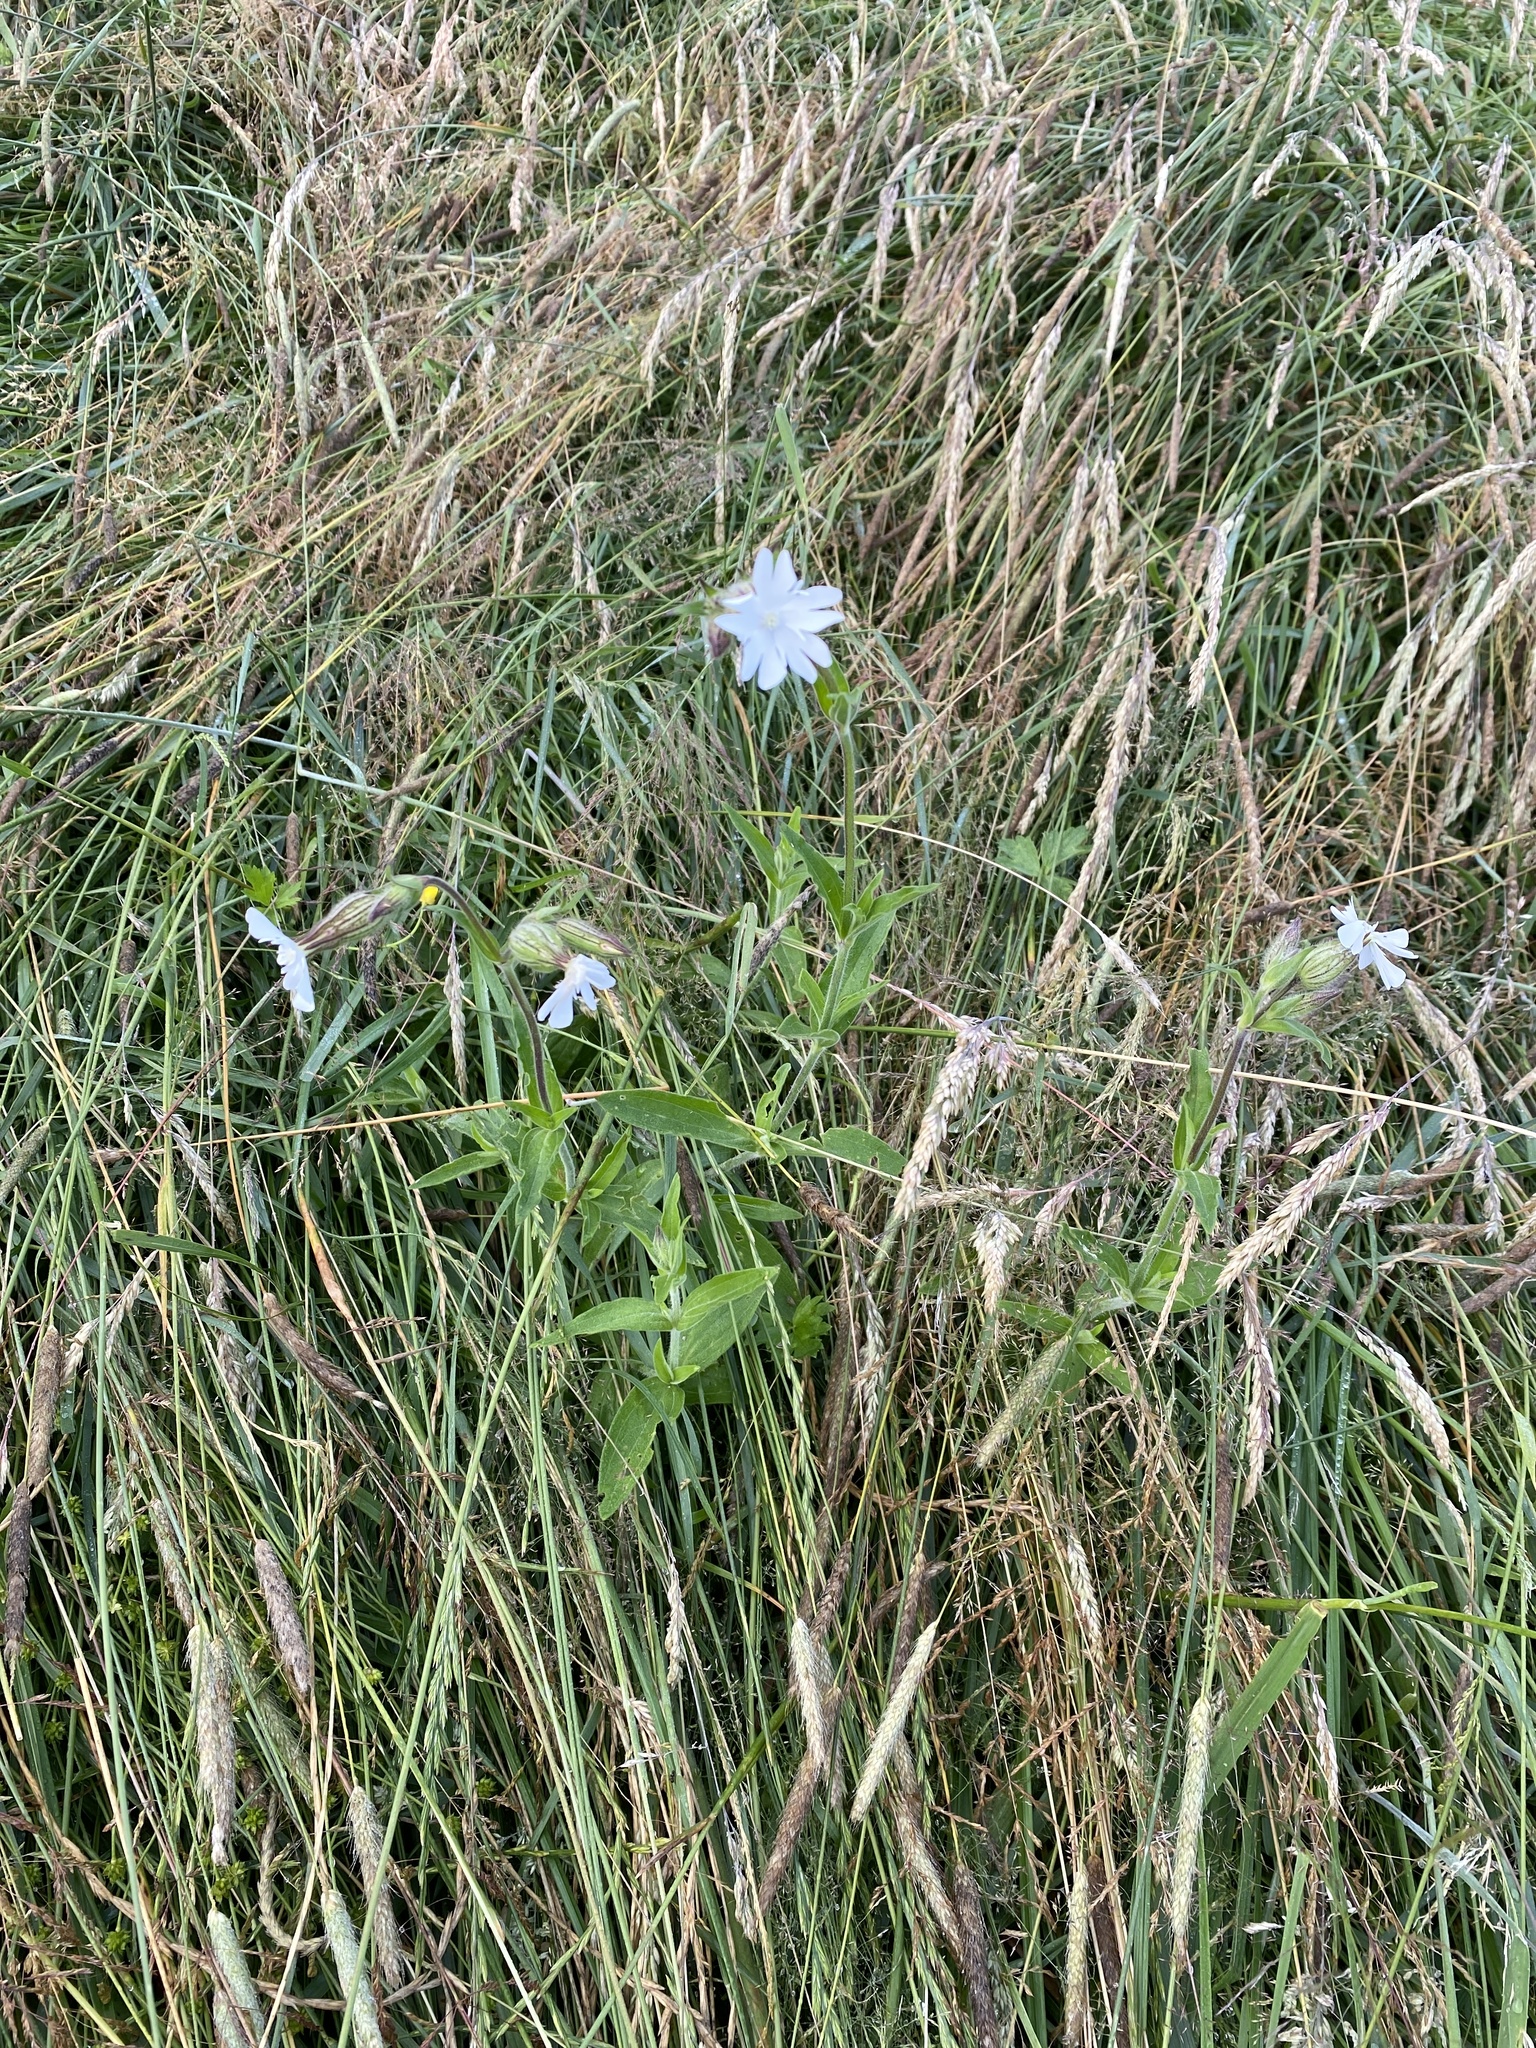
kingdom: Plantae
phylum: Tracheophyta
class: Magnoliopsida
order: Caryophyllales
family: Caryophyllaceae
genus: Silene
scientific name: Silene latifolia
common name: White campion
